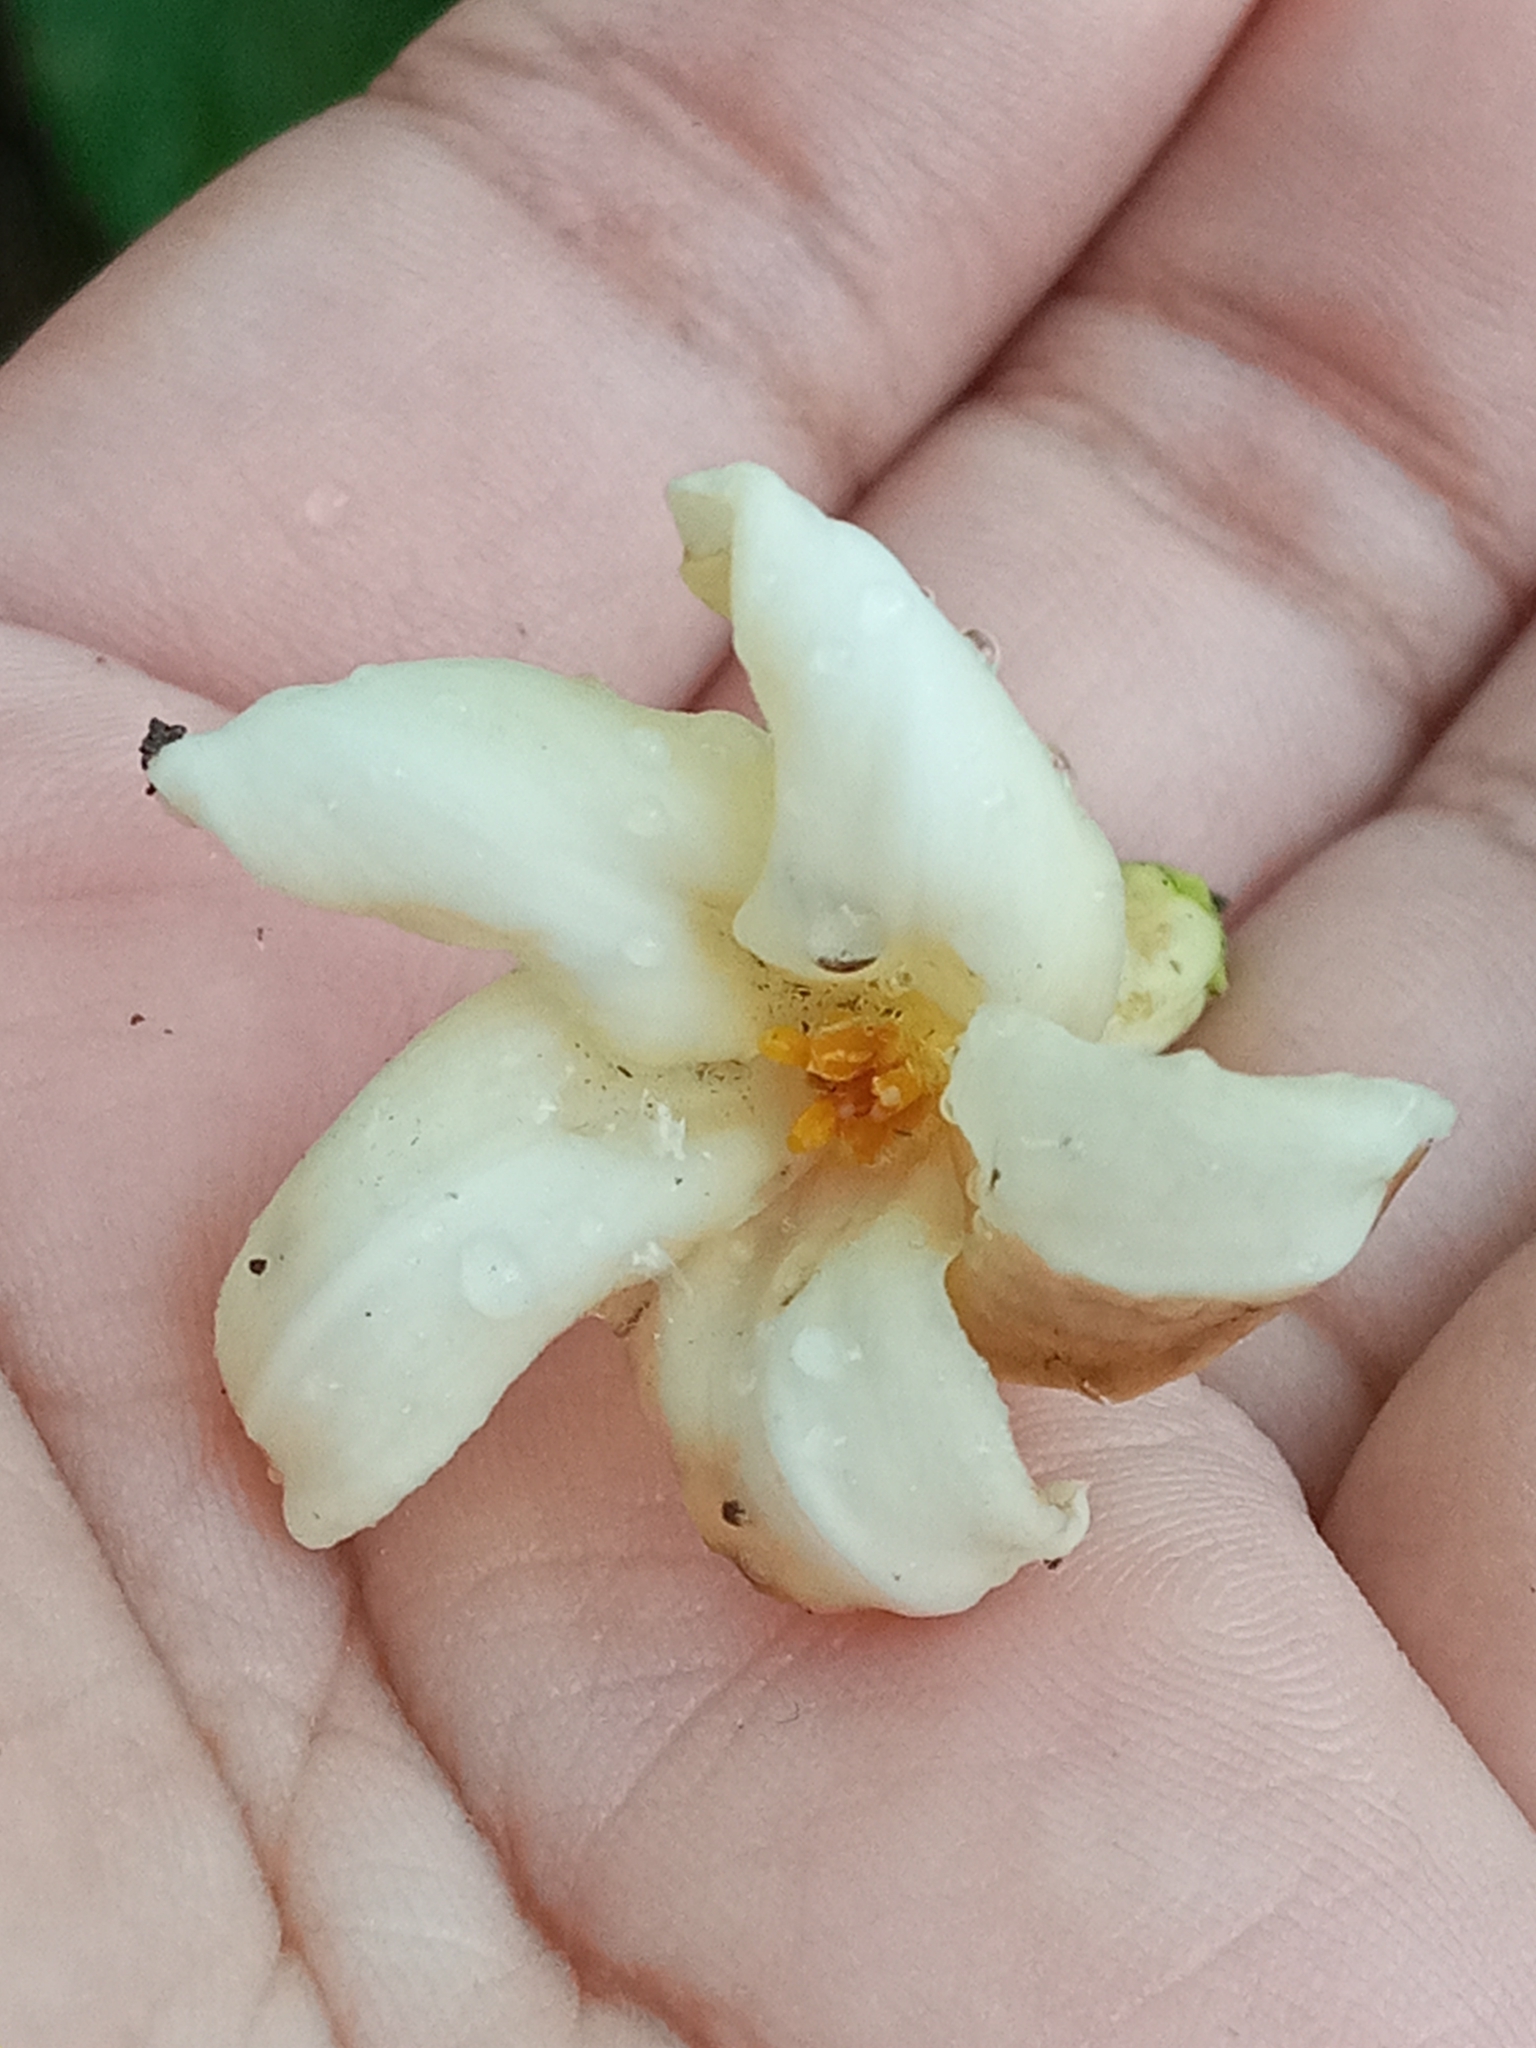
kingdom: Plantae
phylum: Tracheophyta
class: Magnoliopsida
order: Brassicales
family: Caricaceae
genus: Carica
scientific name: Carica papaya
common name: Papaya
